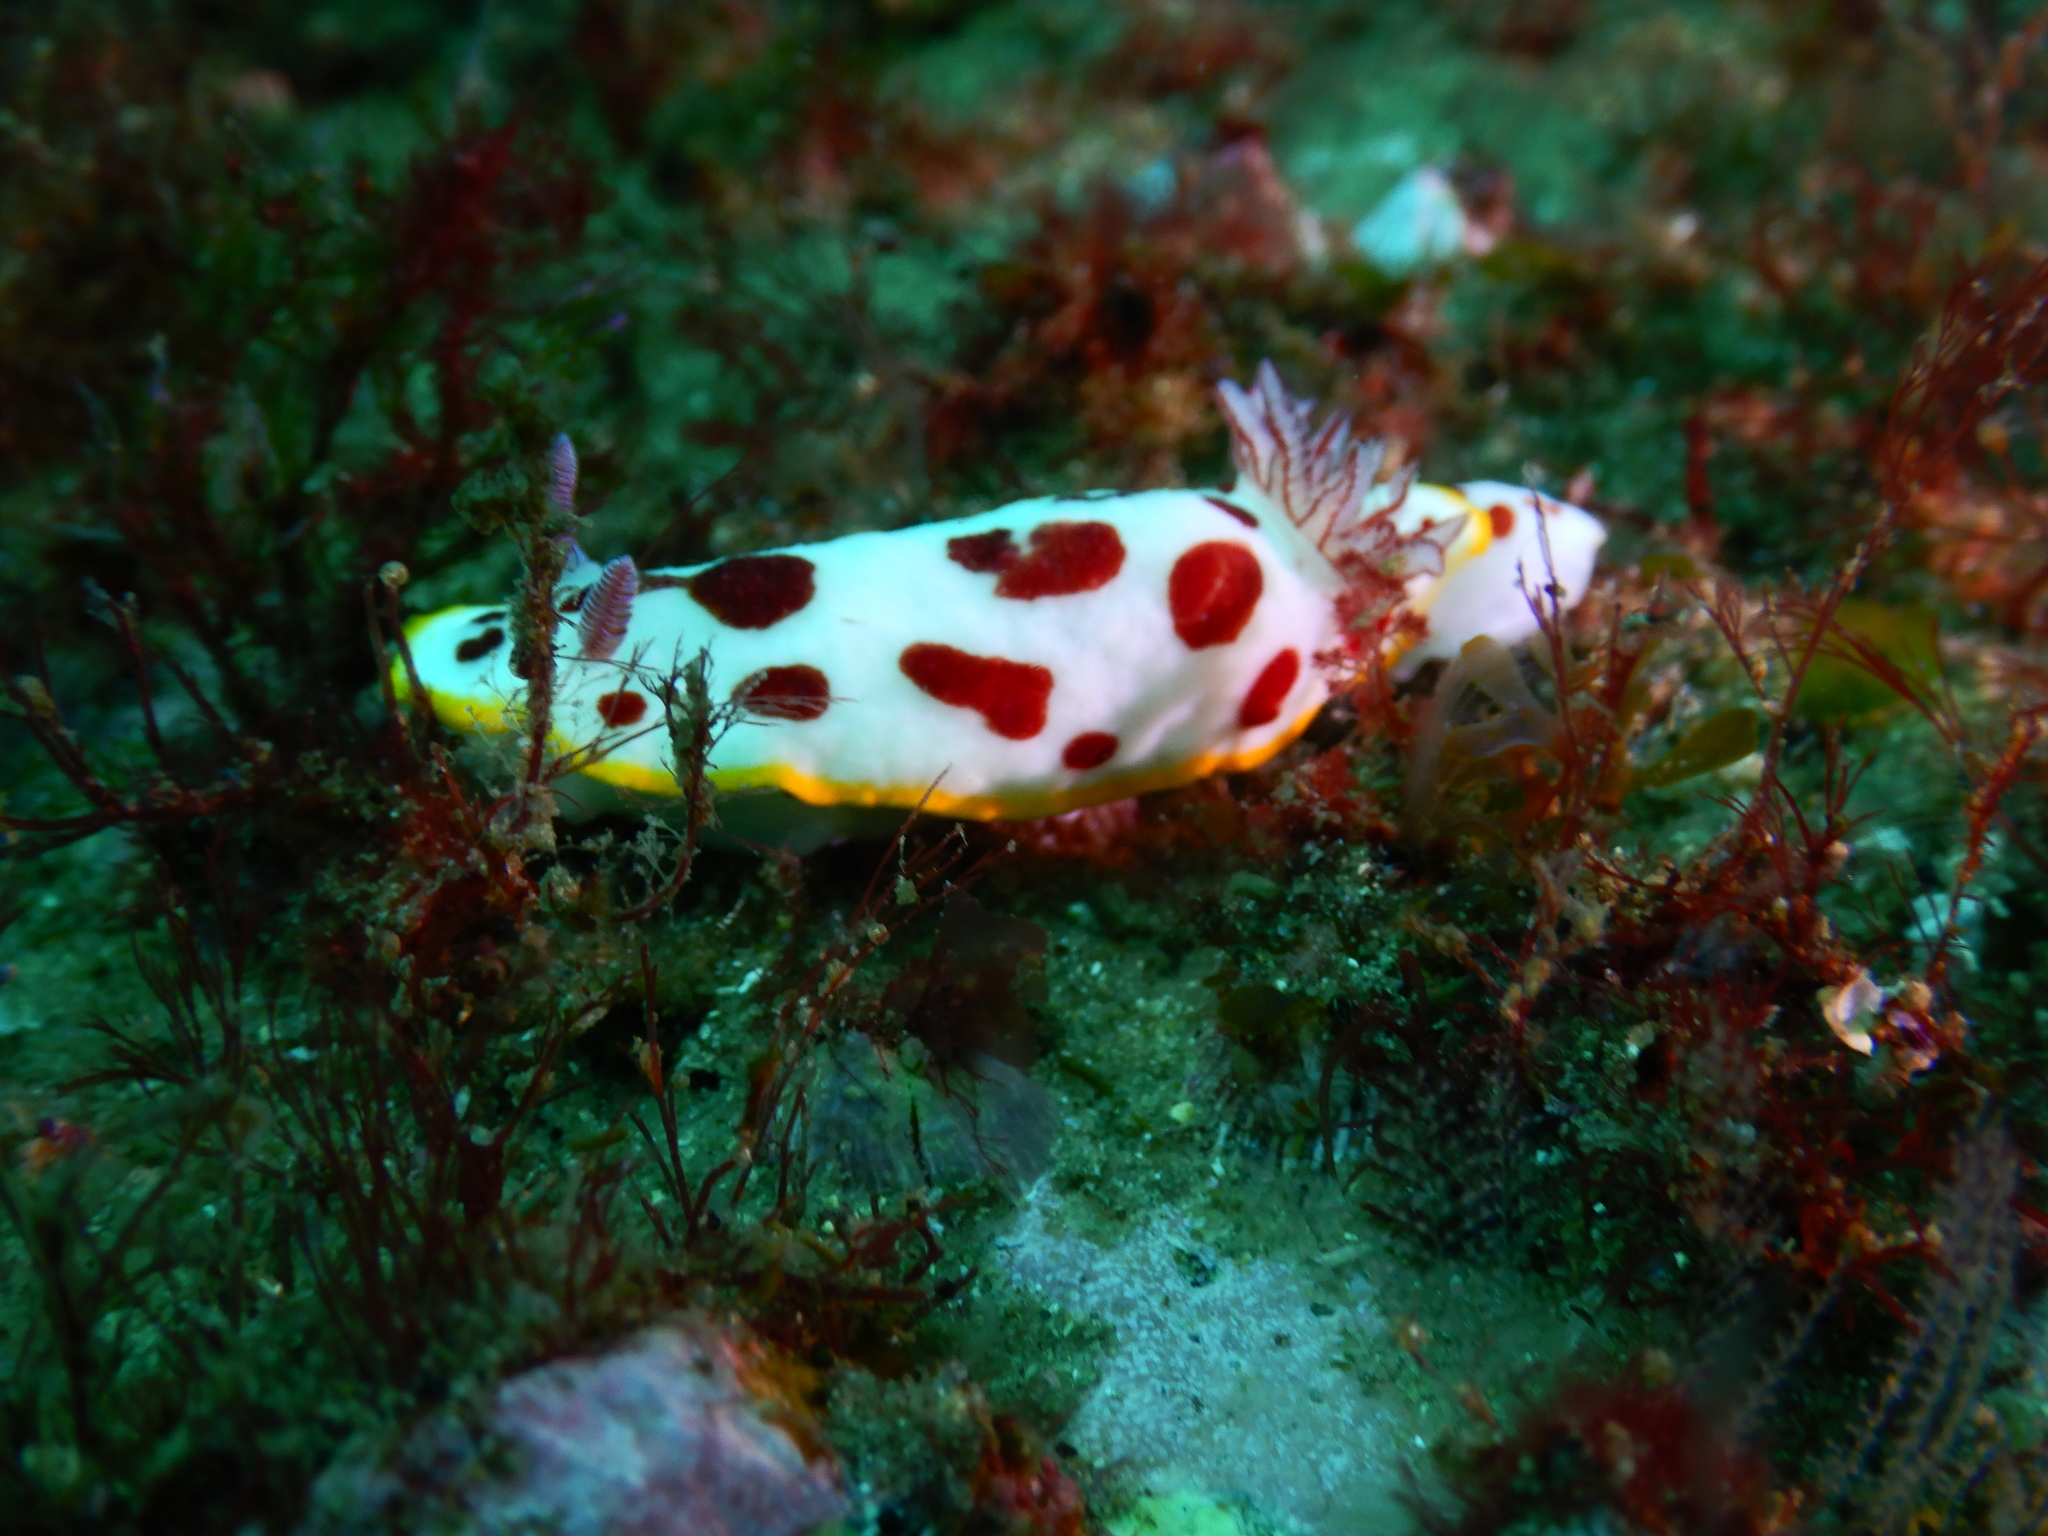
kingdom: Animalia
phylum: Mollusca
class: Gastropoda
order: Nudibranchia
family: Chromodorididae
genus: Goniobranchus
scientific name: Goniobranchus splendidus
